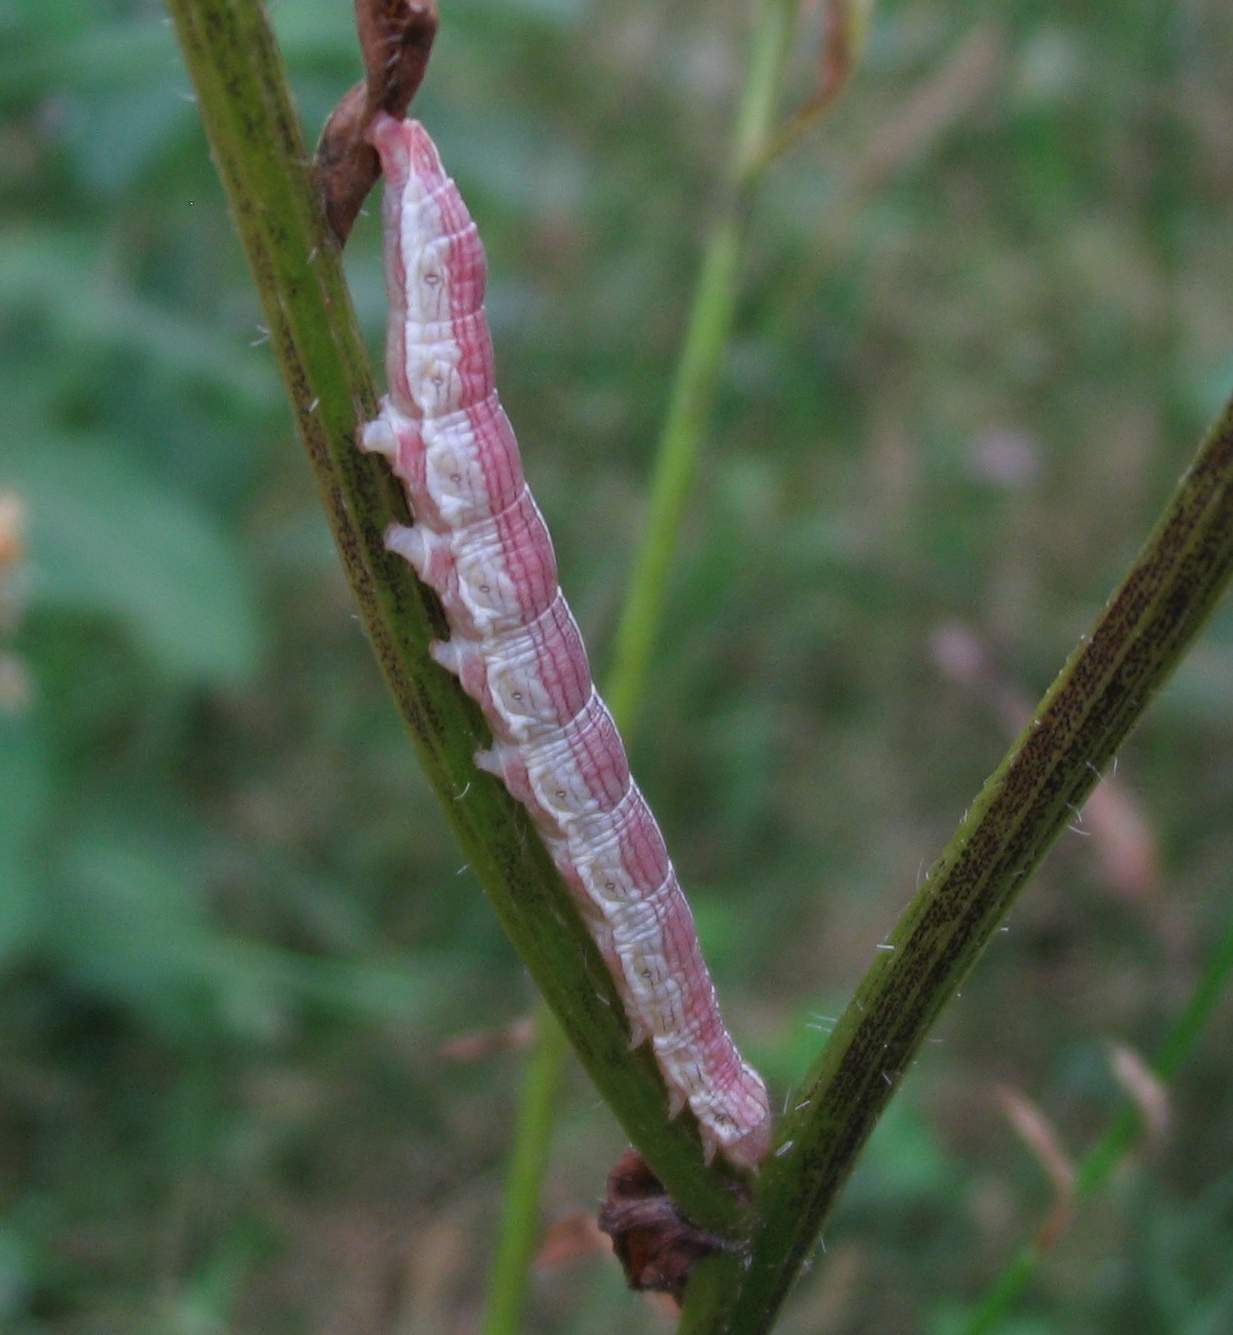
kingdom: Animalia
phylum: Arthropoda
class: Insecta
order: Lepidoptera
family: Noctuidae
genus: Cucullia
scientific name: Cucullia postera
